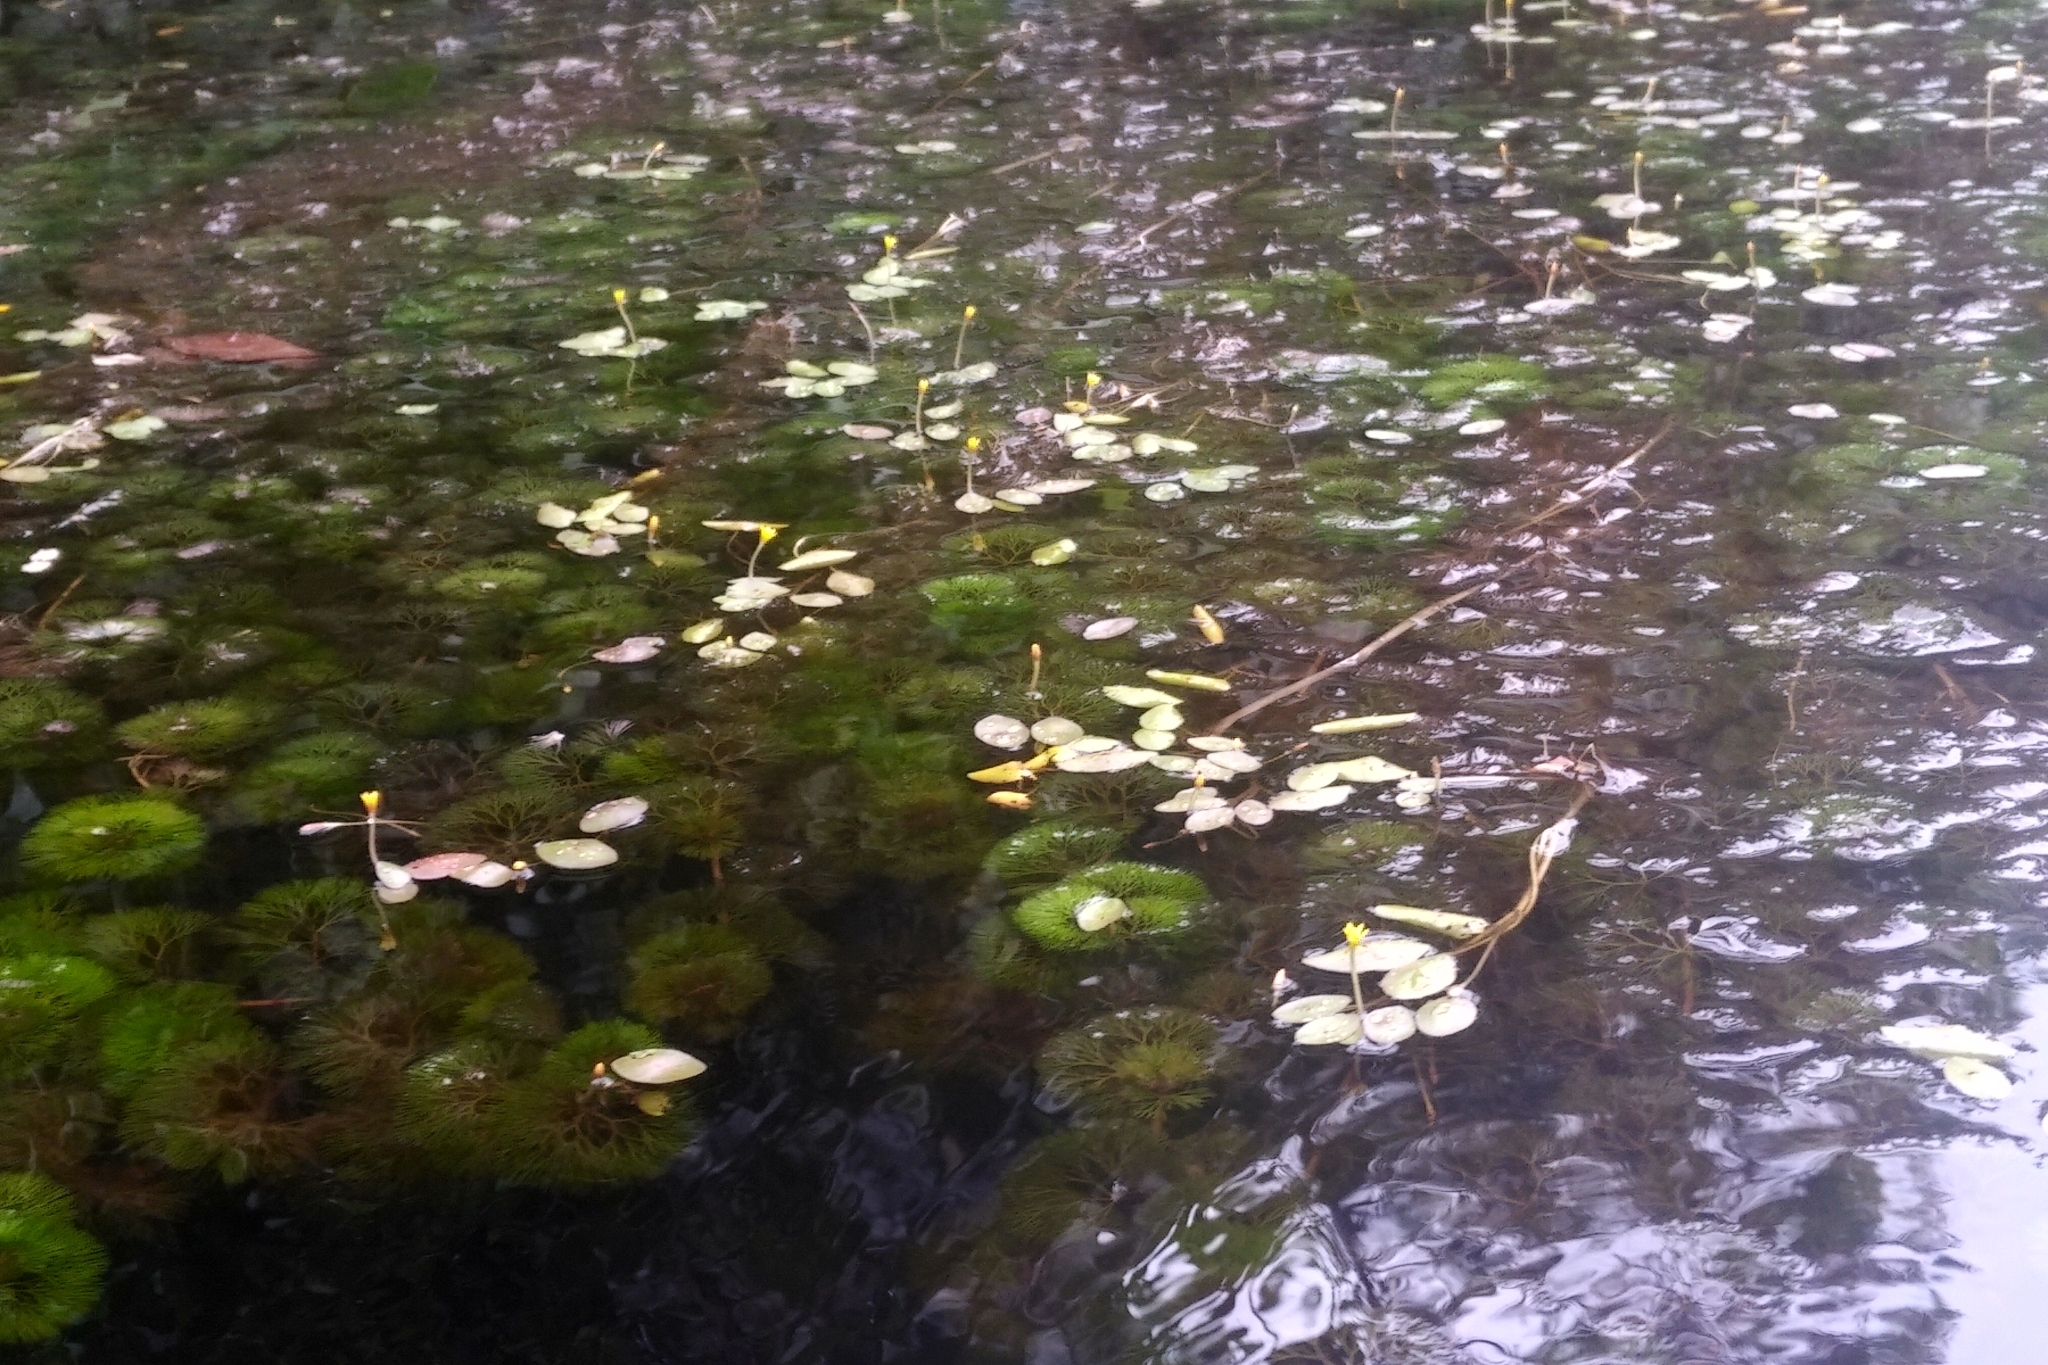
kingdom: Plantae
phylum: Tracheophyta
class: Magnoliopsida
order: Nymphaeales
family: Cabombaceae
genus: Cabomba
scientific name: Cabomba aquatica
